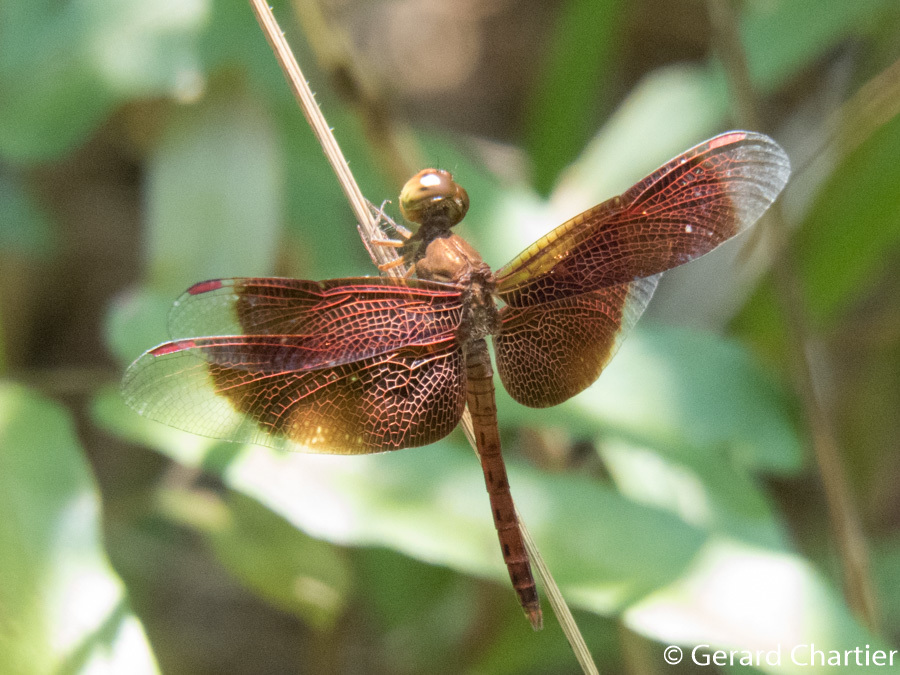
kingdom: Animalia
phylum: Arthropoda
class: Insecta
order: Odonata
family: Libellulidae
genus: Neurothemis
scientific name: Neurothemis fluctuans
